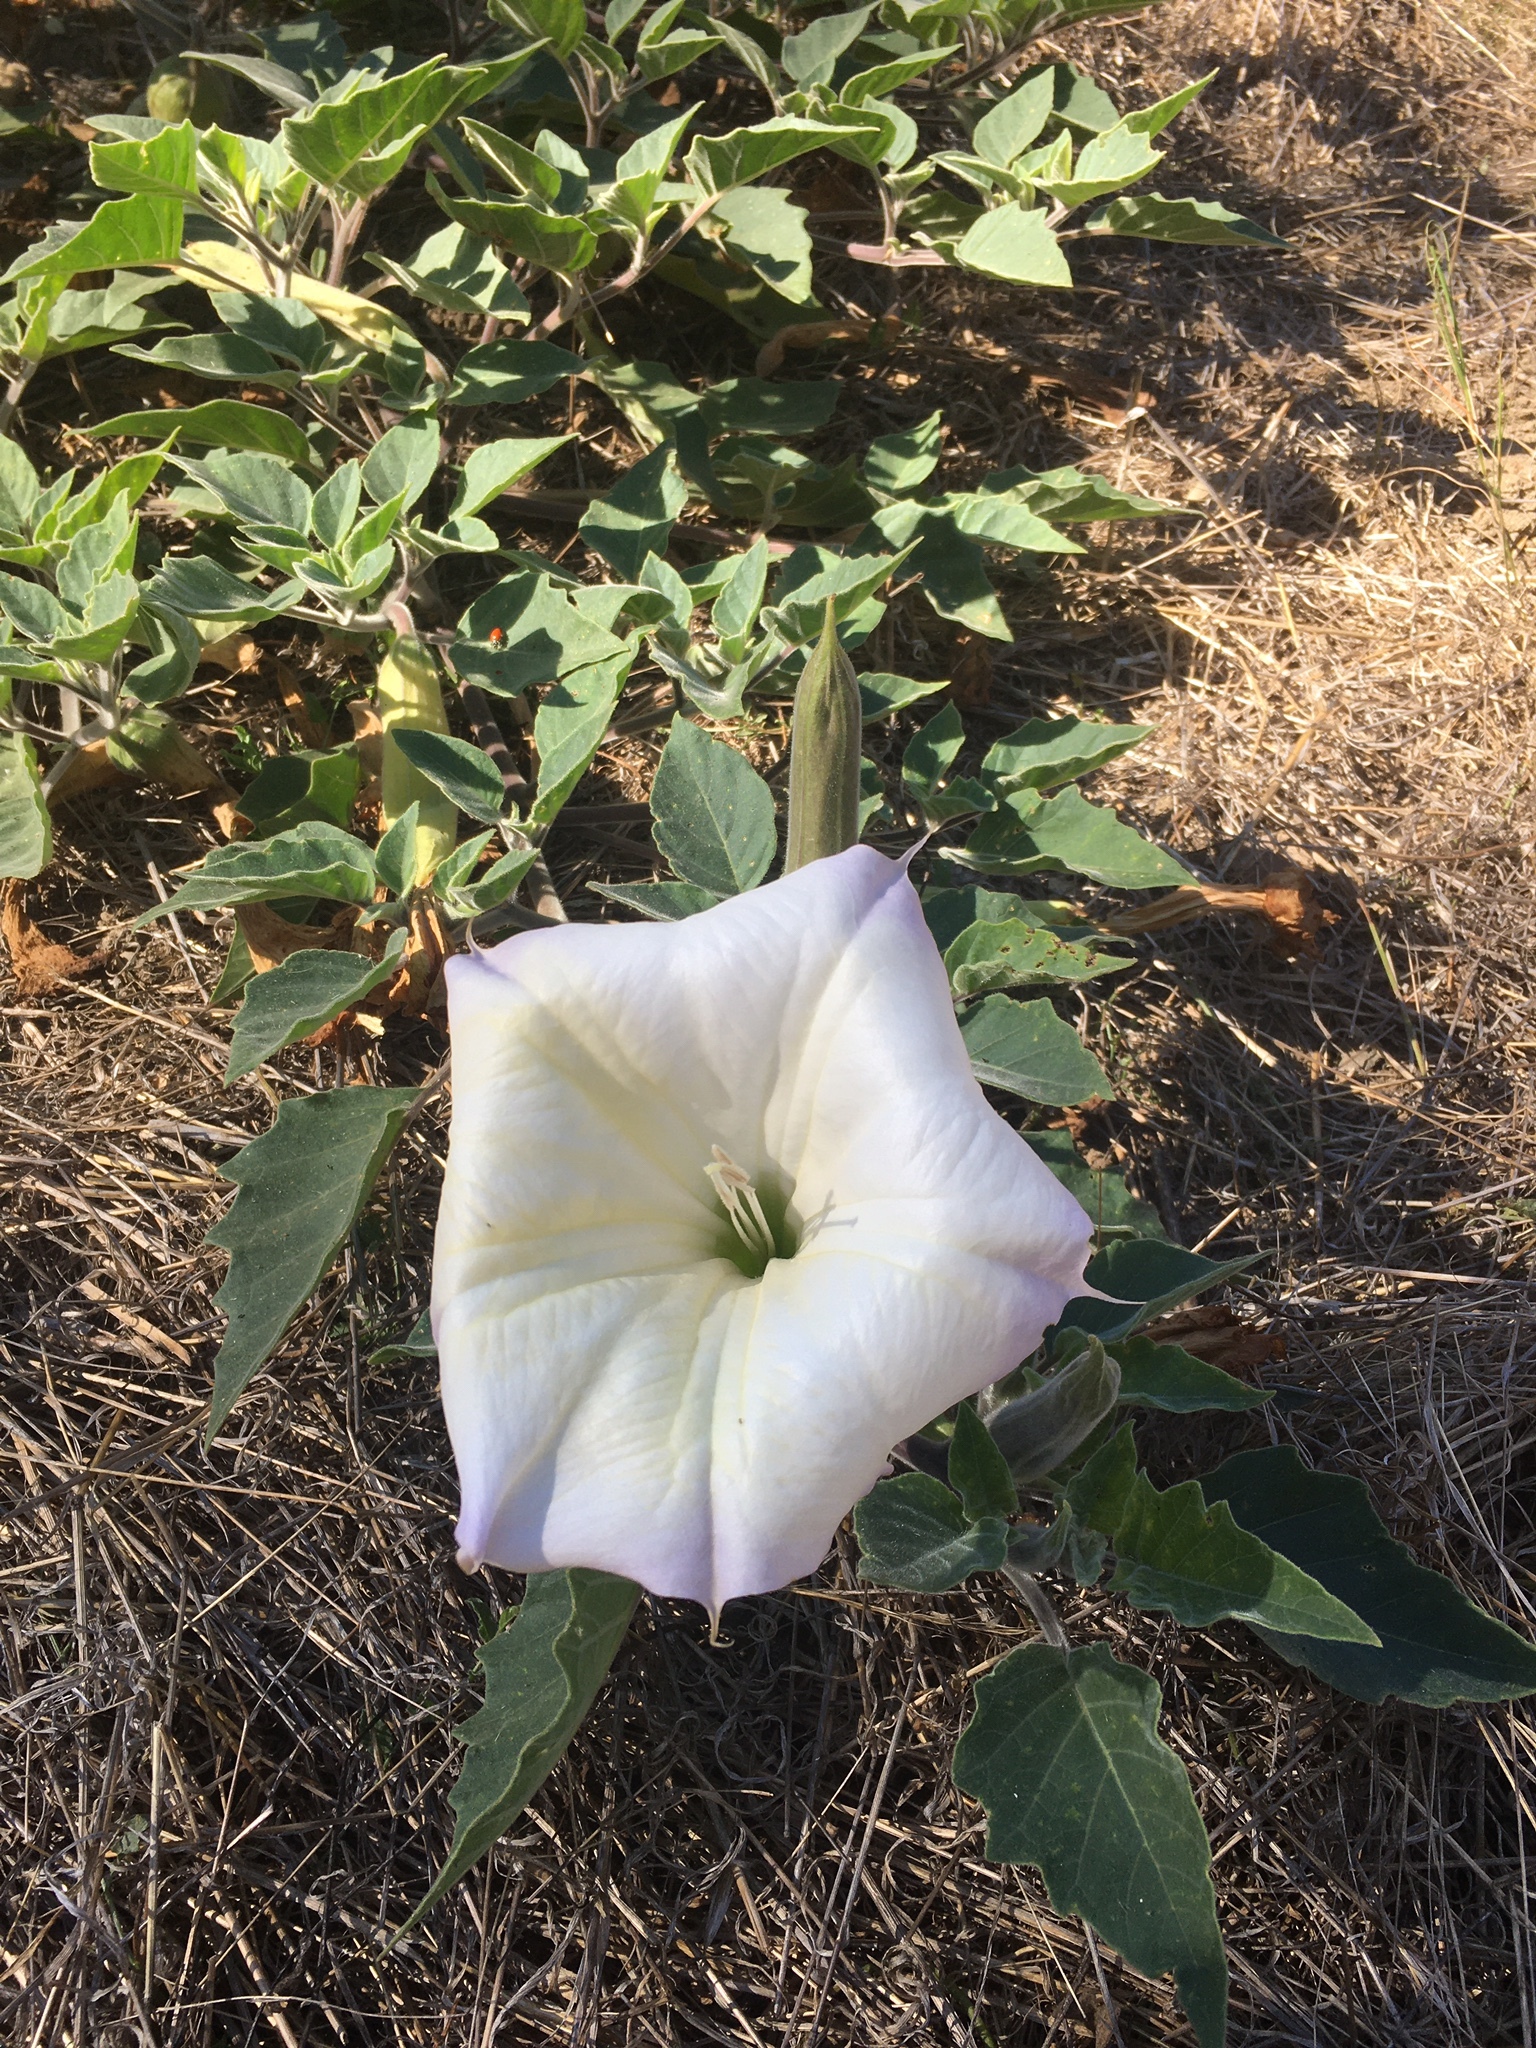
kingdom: Plantae
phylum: Tracheophyta
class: Magnoliopsida
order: Solanales
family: Solanaceae
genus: Datura
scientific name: Datura wrightii
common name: Sacred thorn-apple
